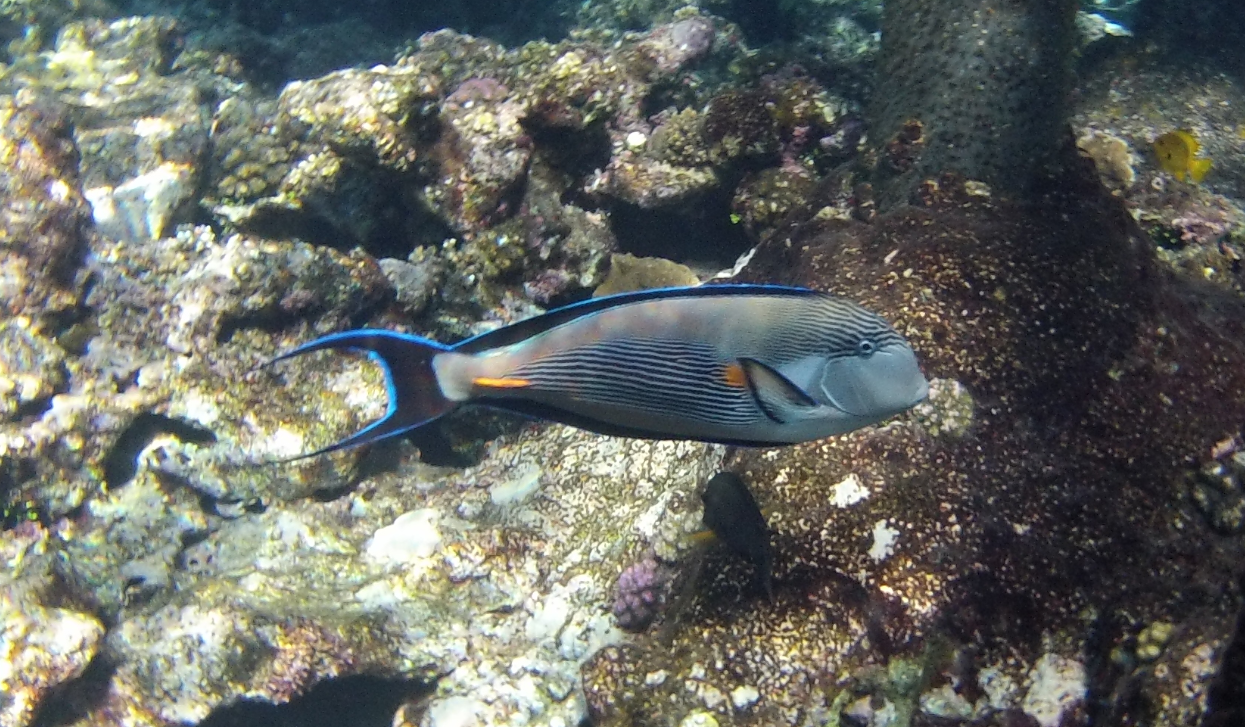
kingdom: Animalia
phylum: Chordata
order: Perciformes
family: Acanthuridae
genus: Acanthurus
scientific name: Acanthurus sohal
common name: Red sea surgeonfish
